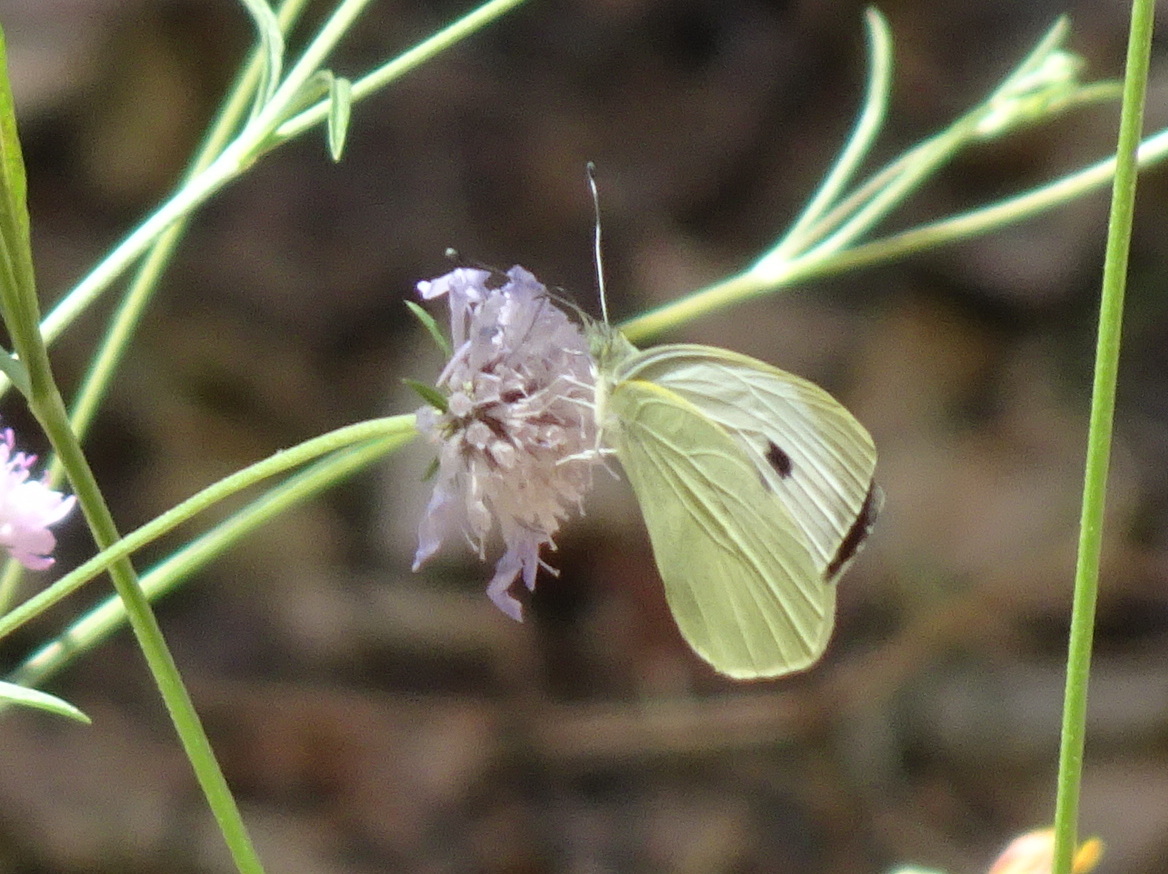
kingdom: Animalia
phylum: Arthropoda
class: Insecta
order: Lepidoptera
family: Pieridae
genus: Pieris
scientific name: Pieris brassicae
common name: Large white
